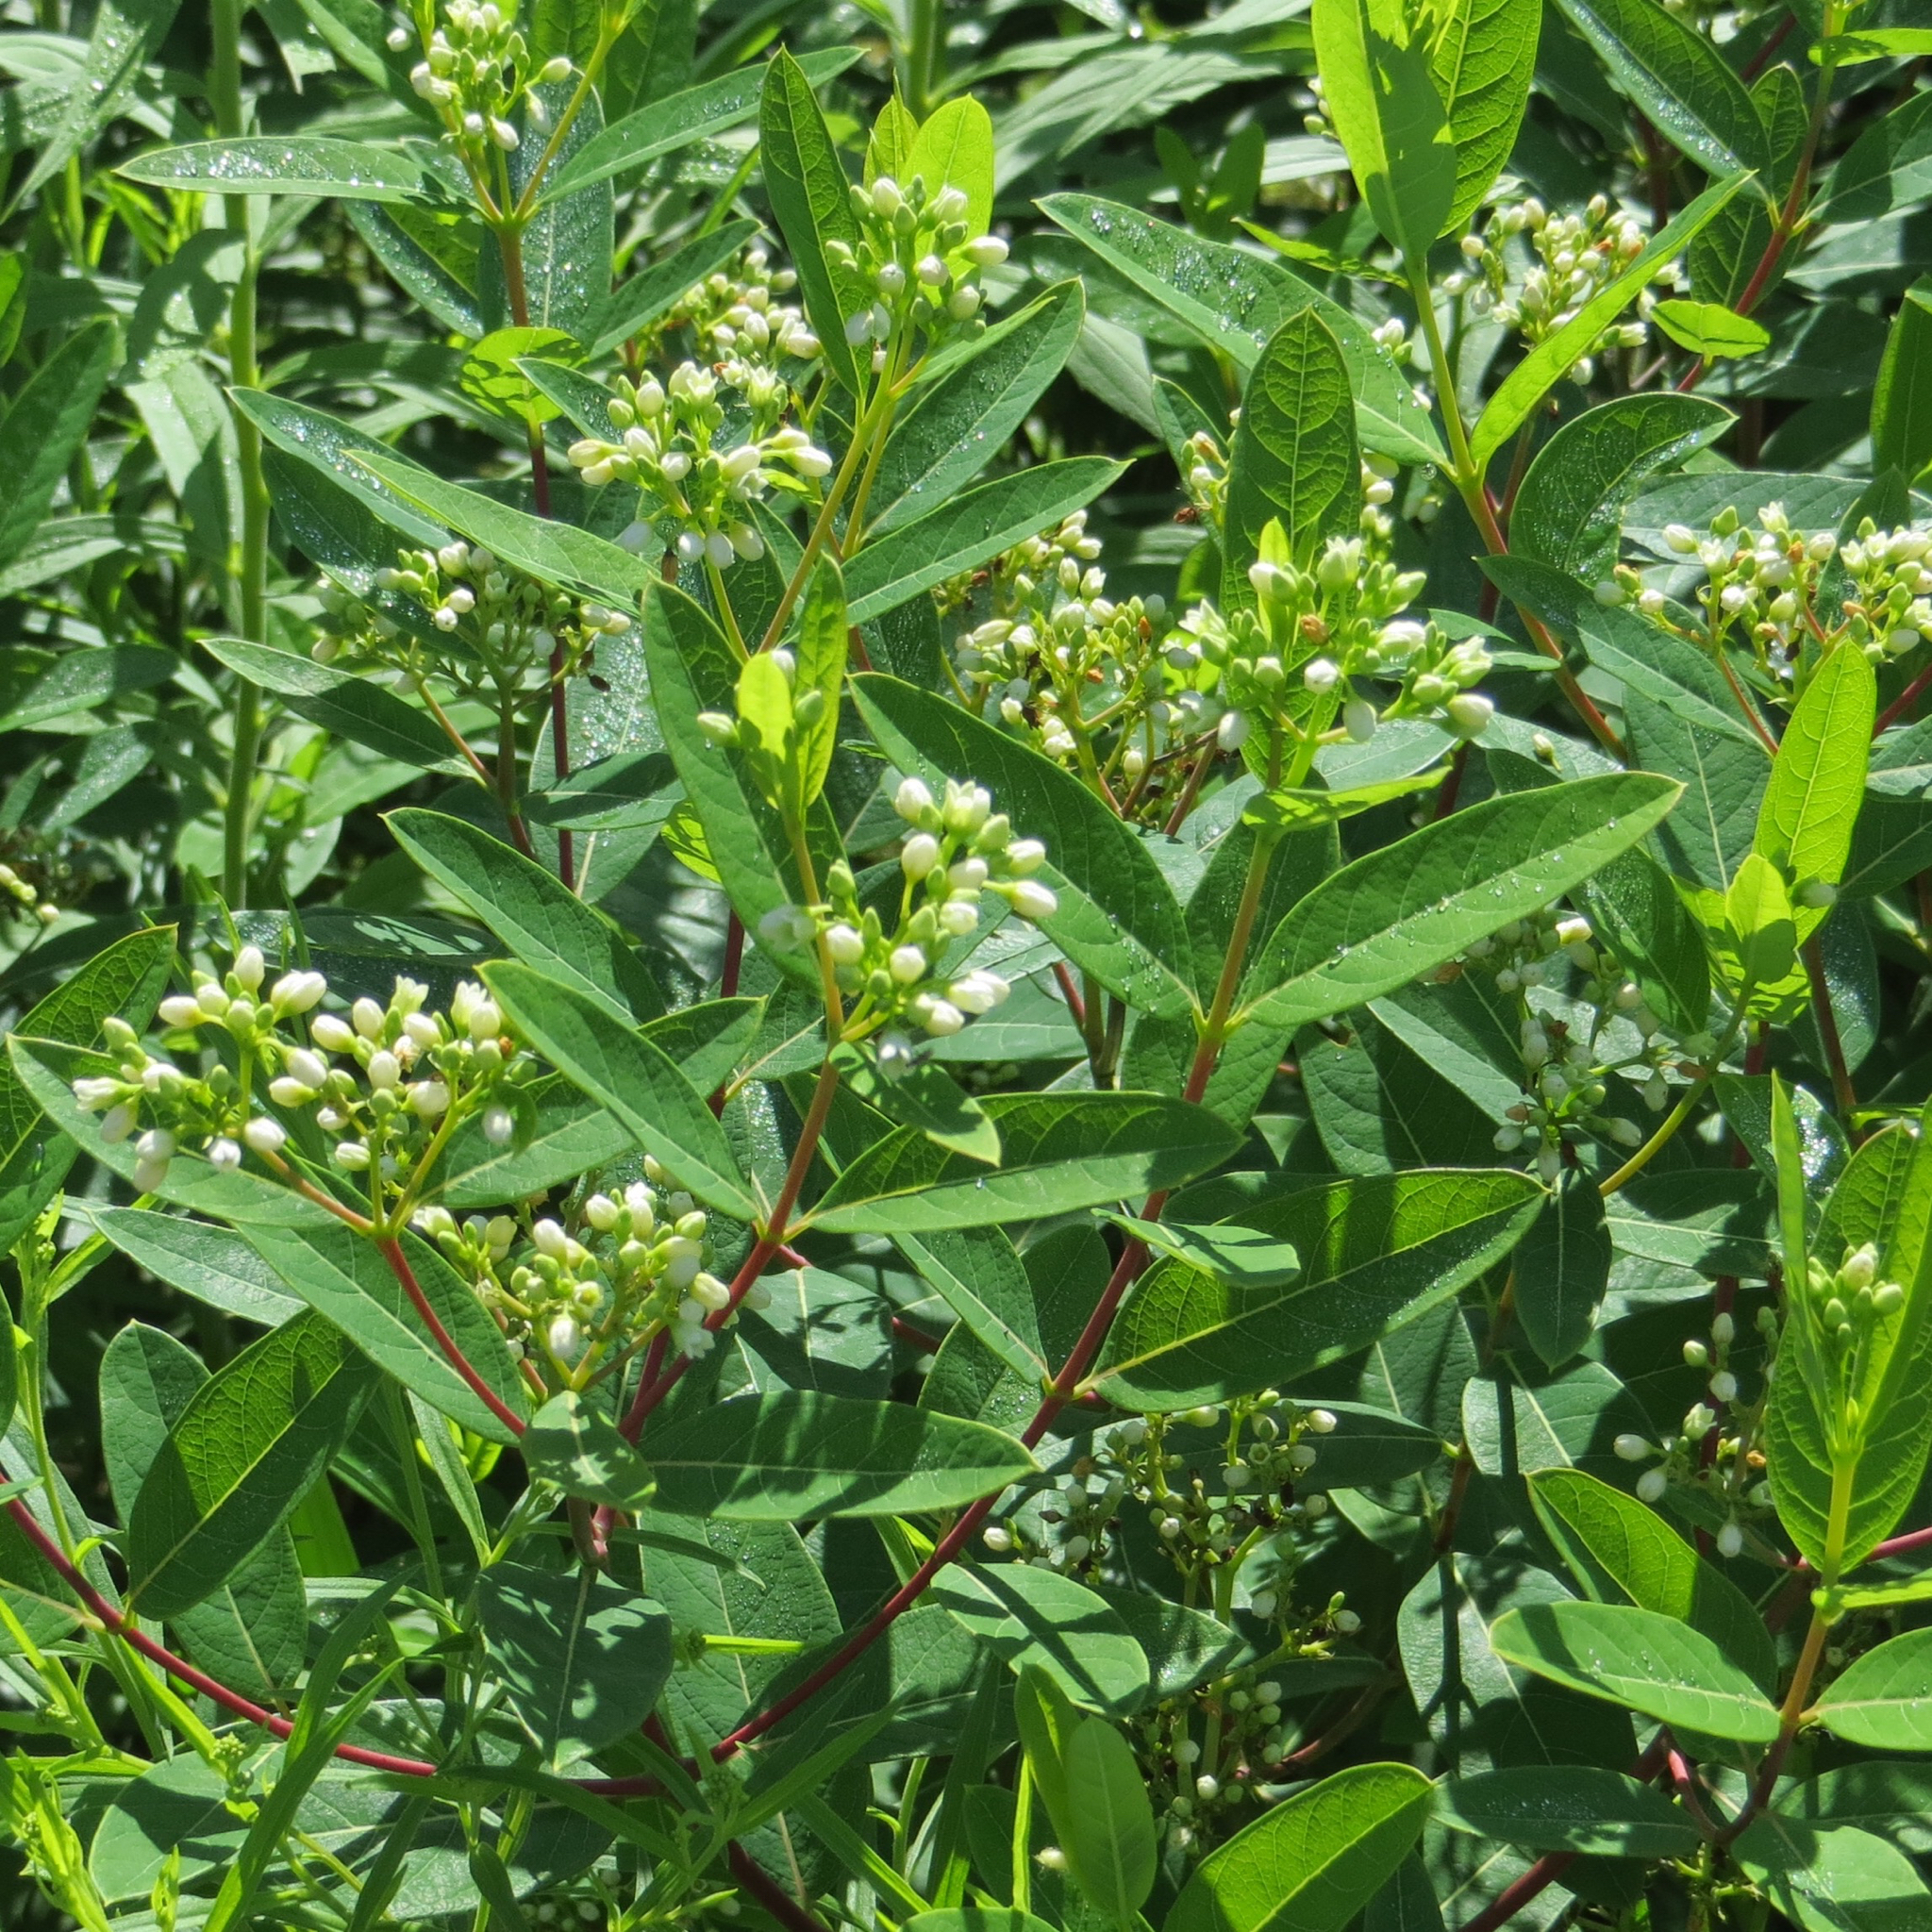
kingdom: Plantae
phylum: Tracheophyta
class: Magnoliopsida
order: Gentianales
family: Apocynaceae
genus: Apocynum
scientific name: Apocynum cannabinum
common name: Hemp dogbane
